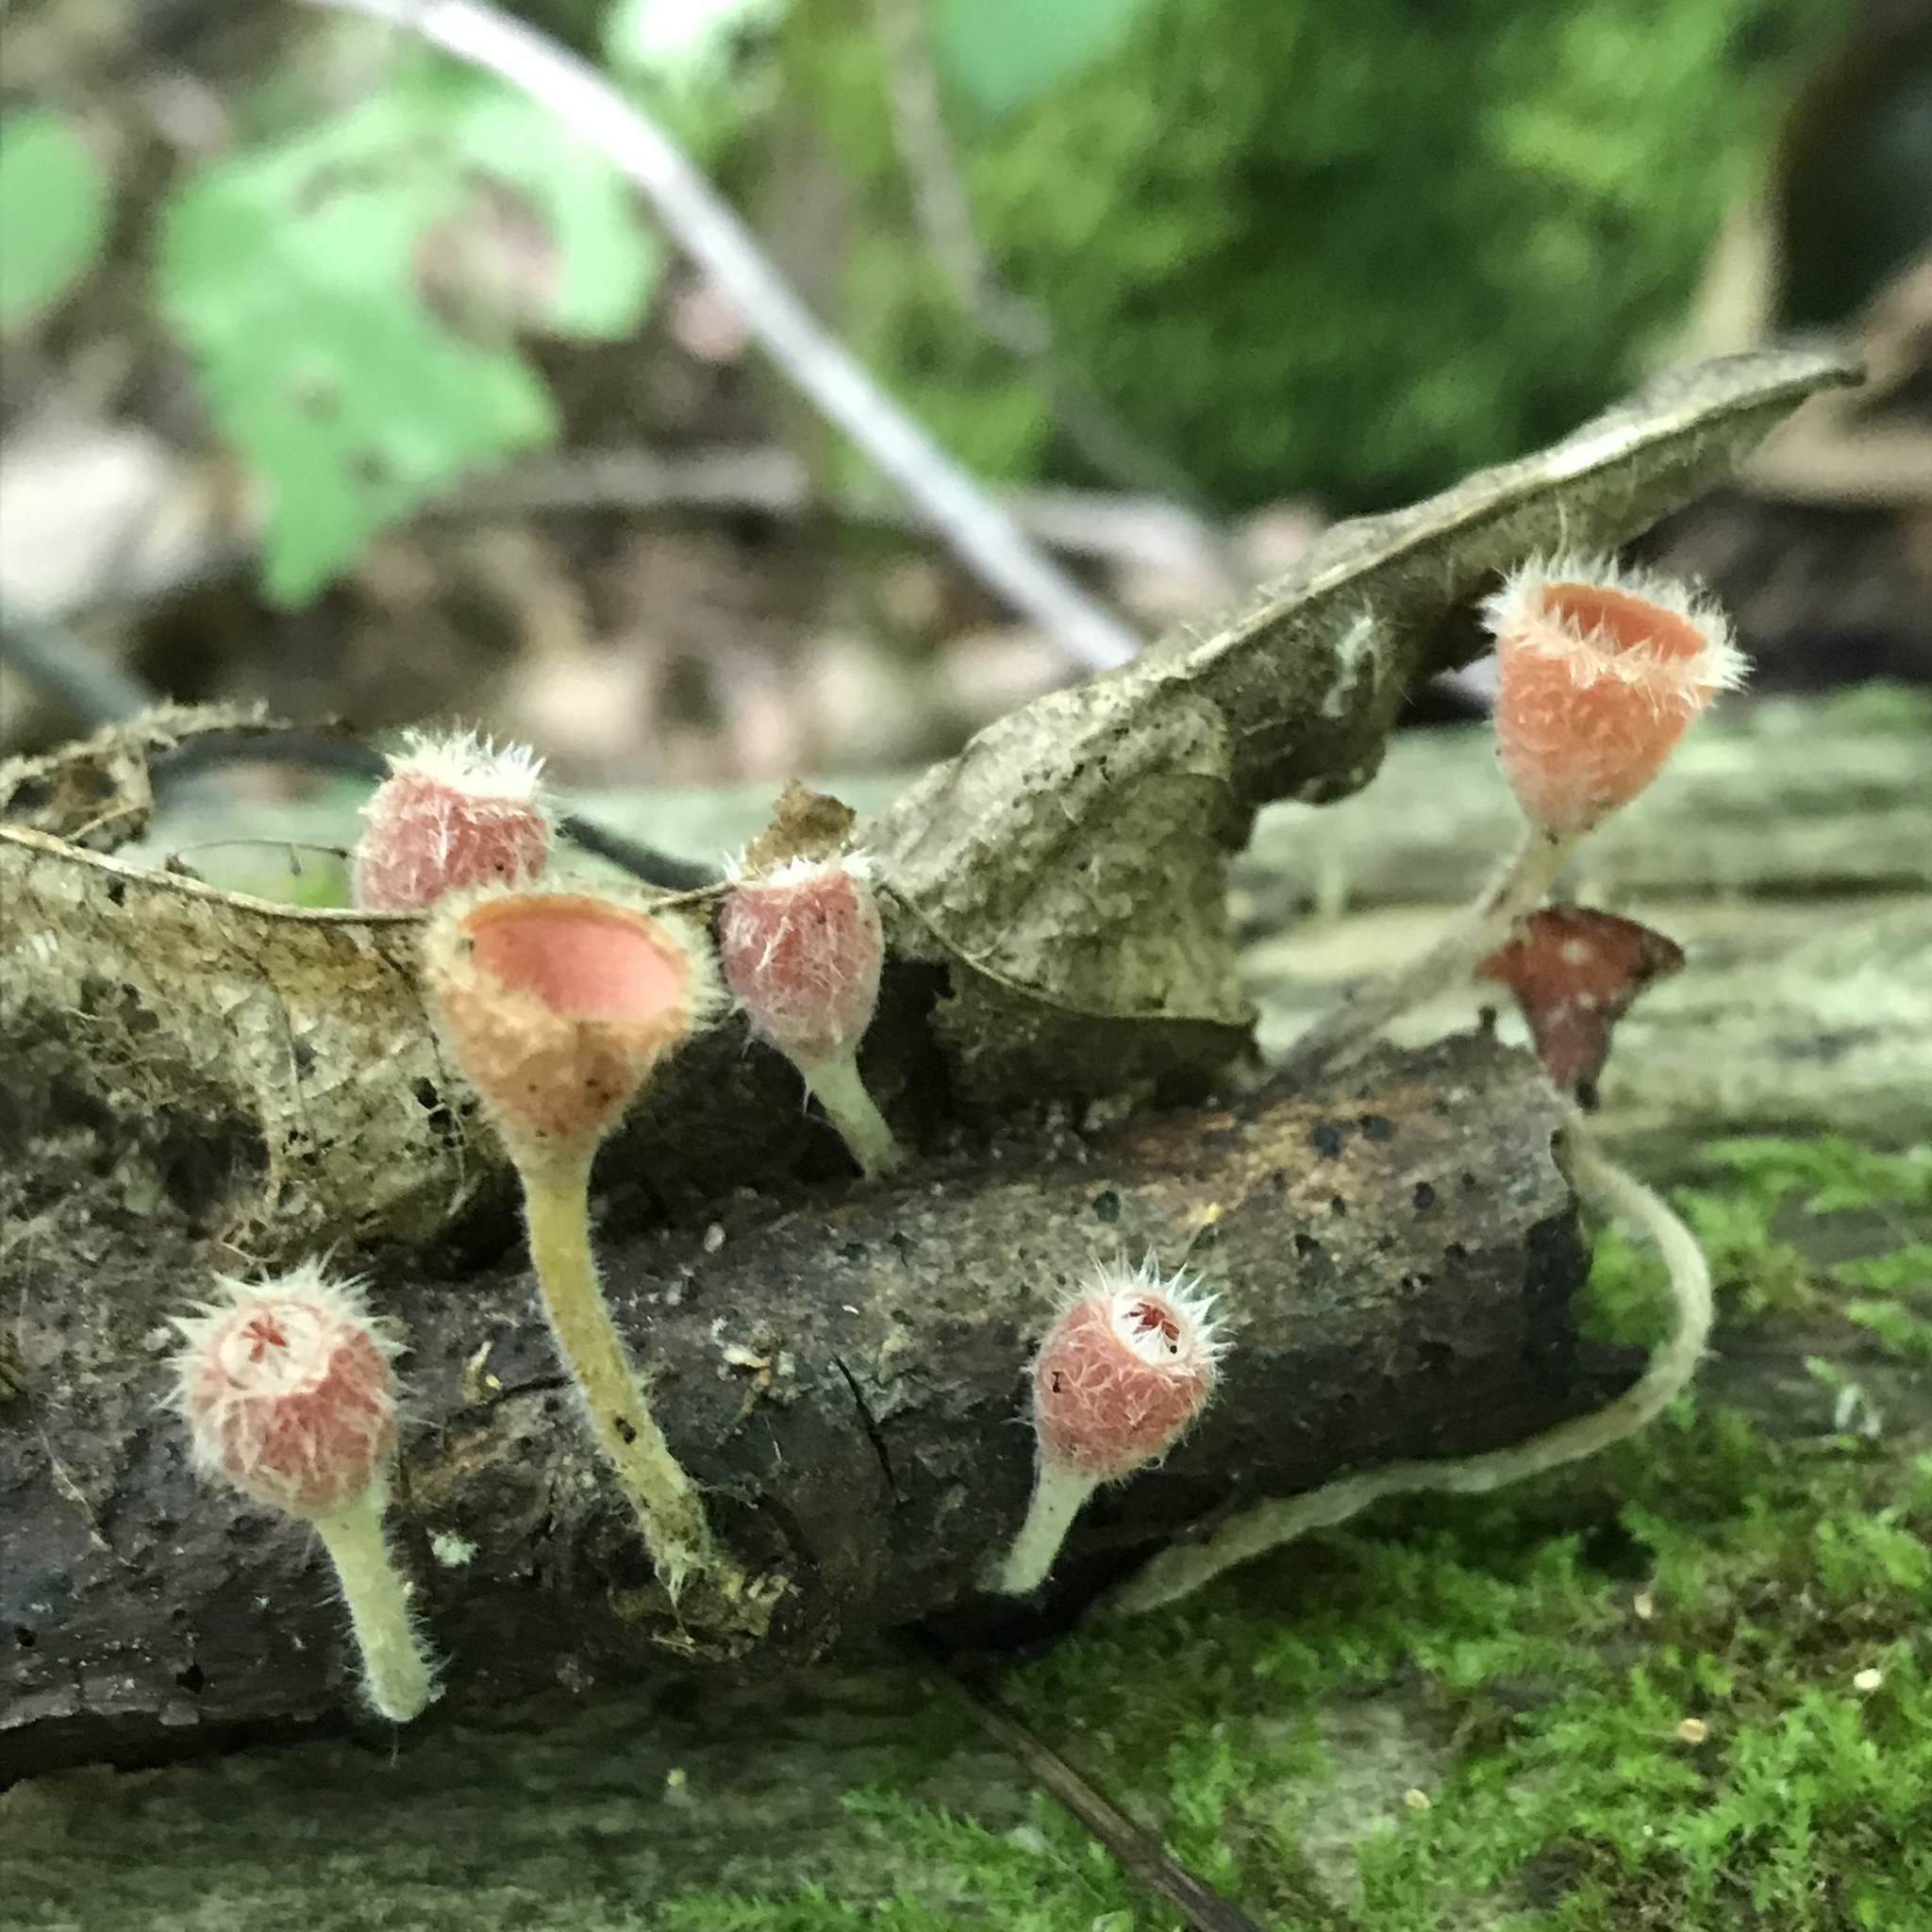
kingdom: Fungi
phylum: Ascomycota
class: Pezizomycetes
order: Pezizales
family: Sarcoscyphaceae
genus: Microstoma
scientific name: Microstoma floccosum
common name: Pink fringed faery cup
